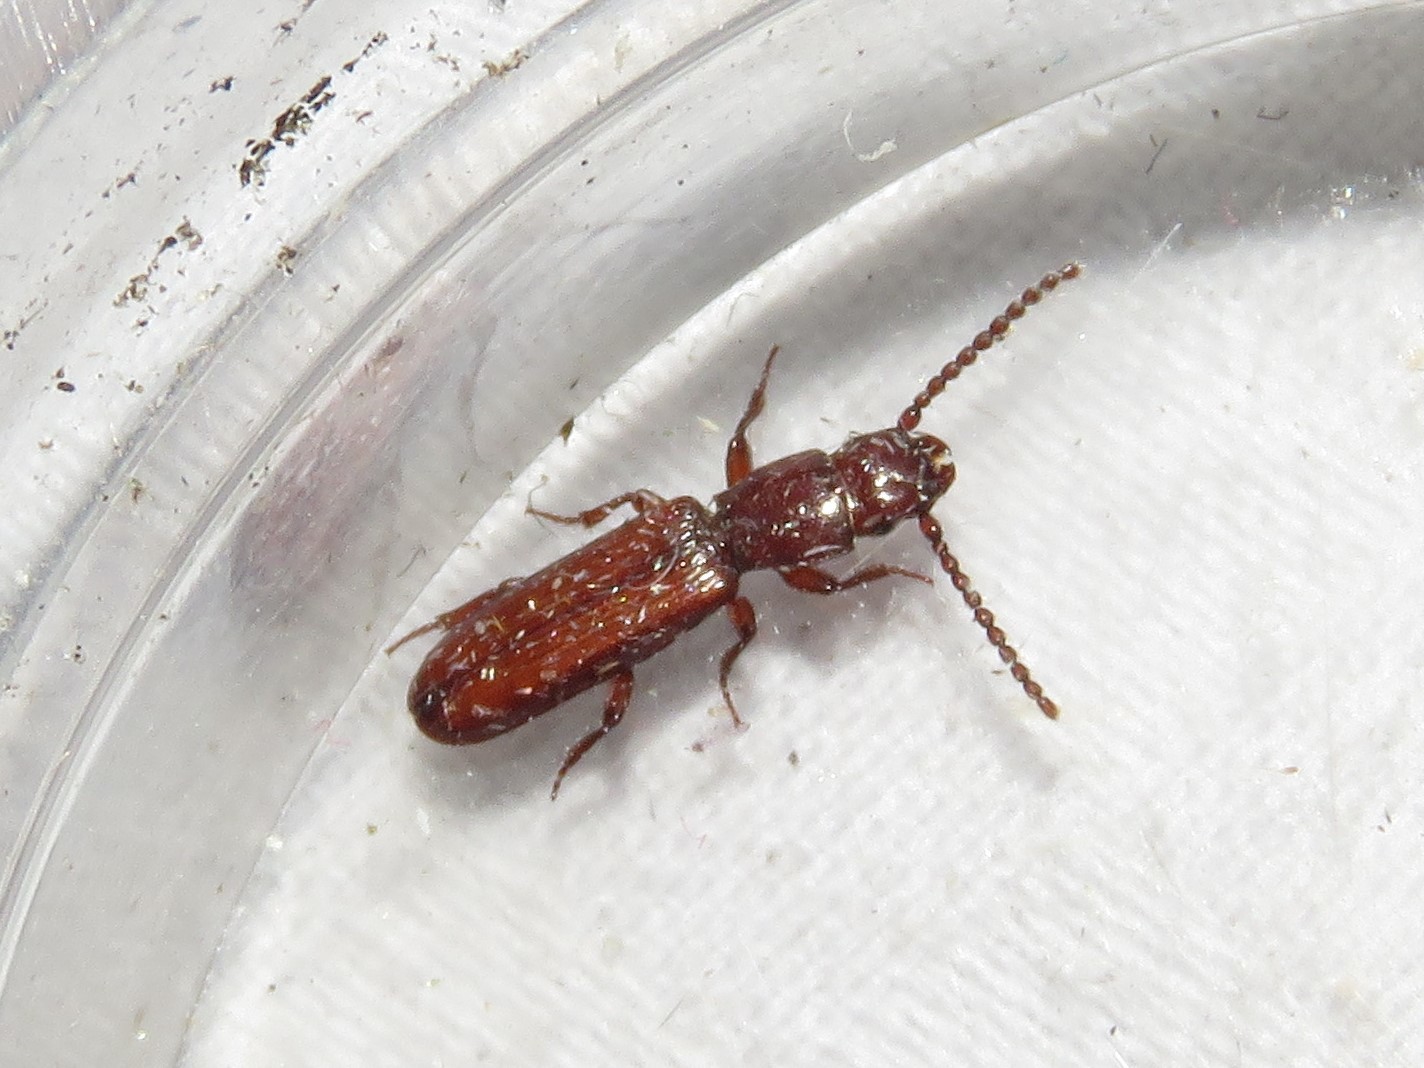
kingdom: Animalia
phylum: Arthropoda
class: Insecta
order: Coleoptera
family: Passandridae
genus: Catogenus
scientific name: Catogenus rufus
